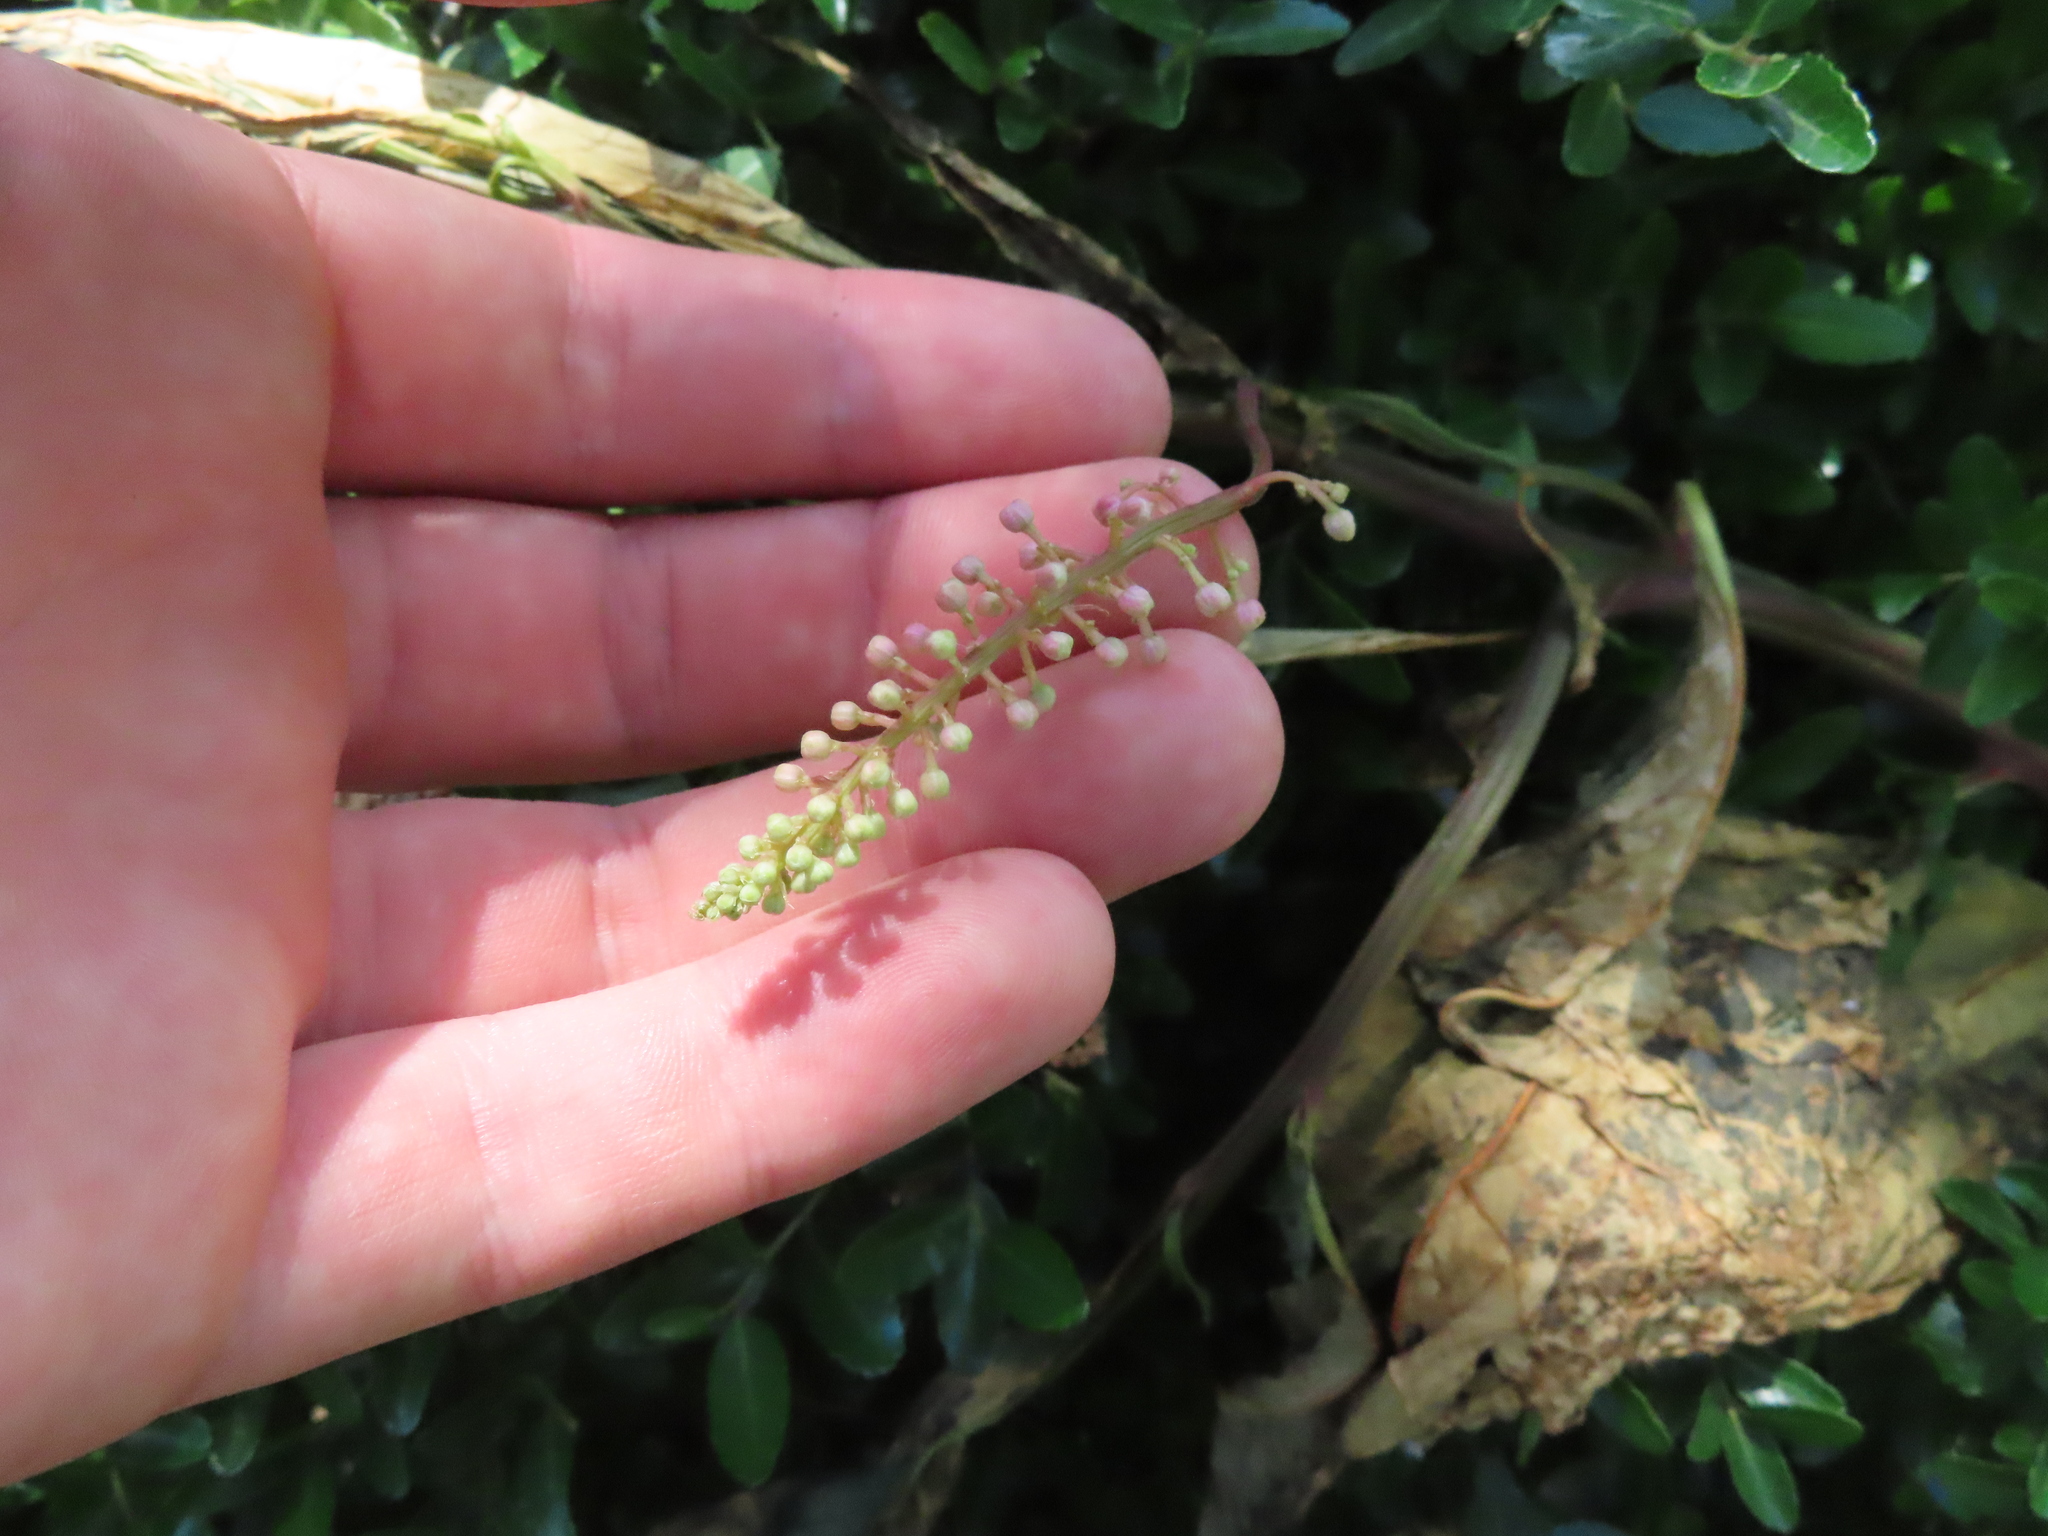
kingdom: Plantae
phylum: Tracheophyta
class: Magnoliopsida
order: Caryophyllales
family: Phytolaccaceae
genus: Phytolacca
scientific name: Phytolacca americana
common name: American pokeweed
